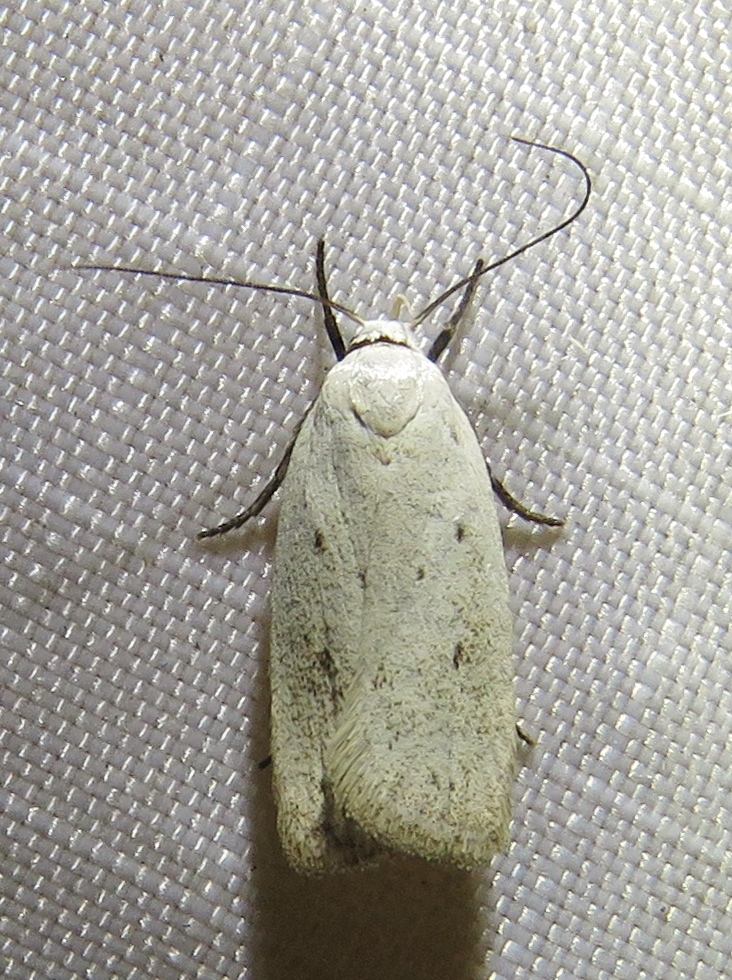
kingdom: Animalia
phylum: Arthropoda
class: Insecta
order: Lepidoptera
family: Oecophoridae
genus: Inga
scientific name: Inga cretacea
